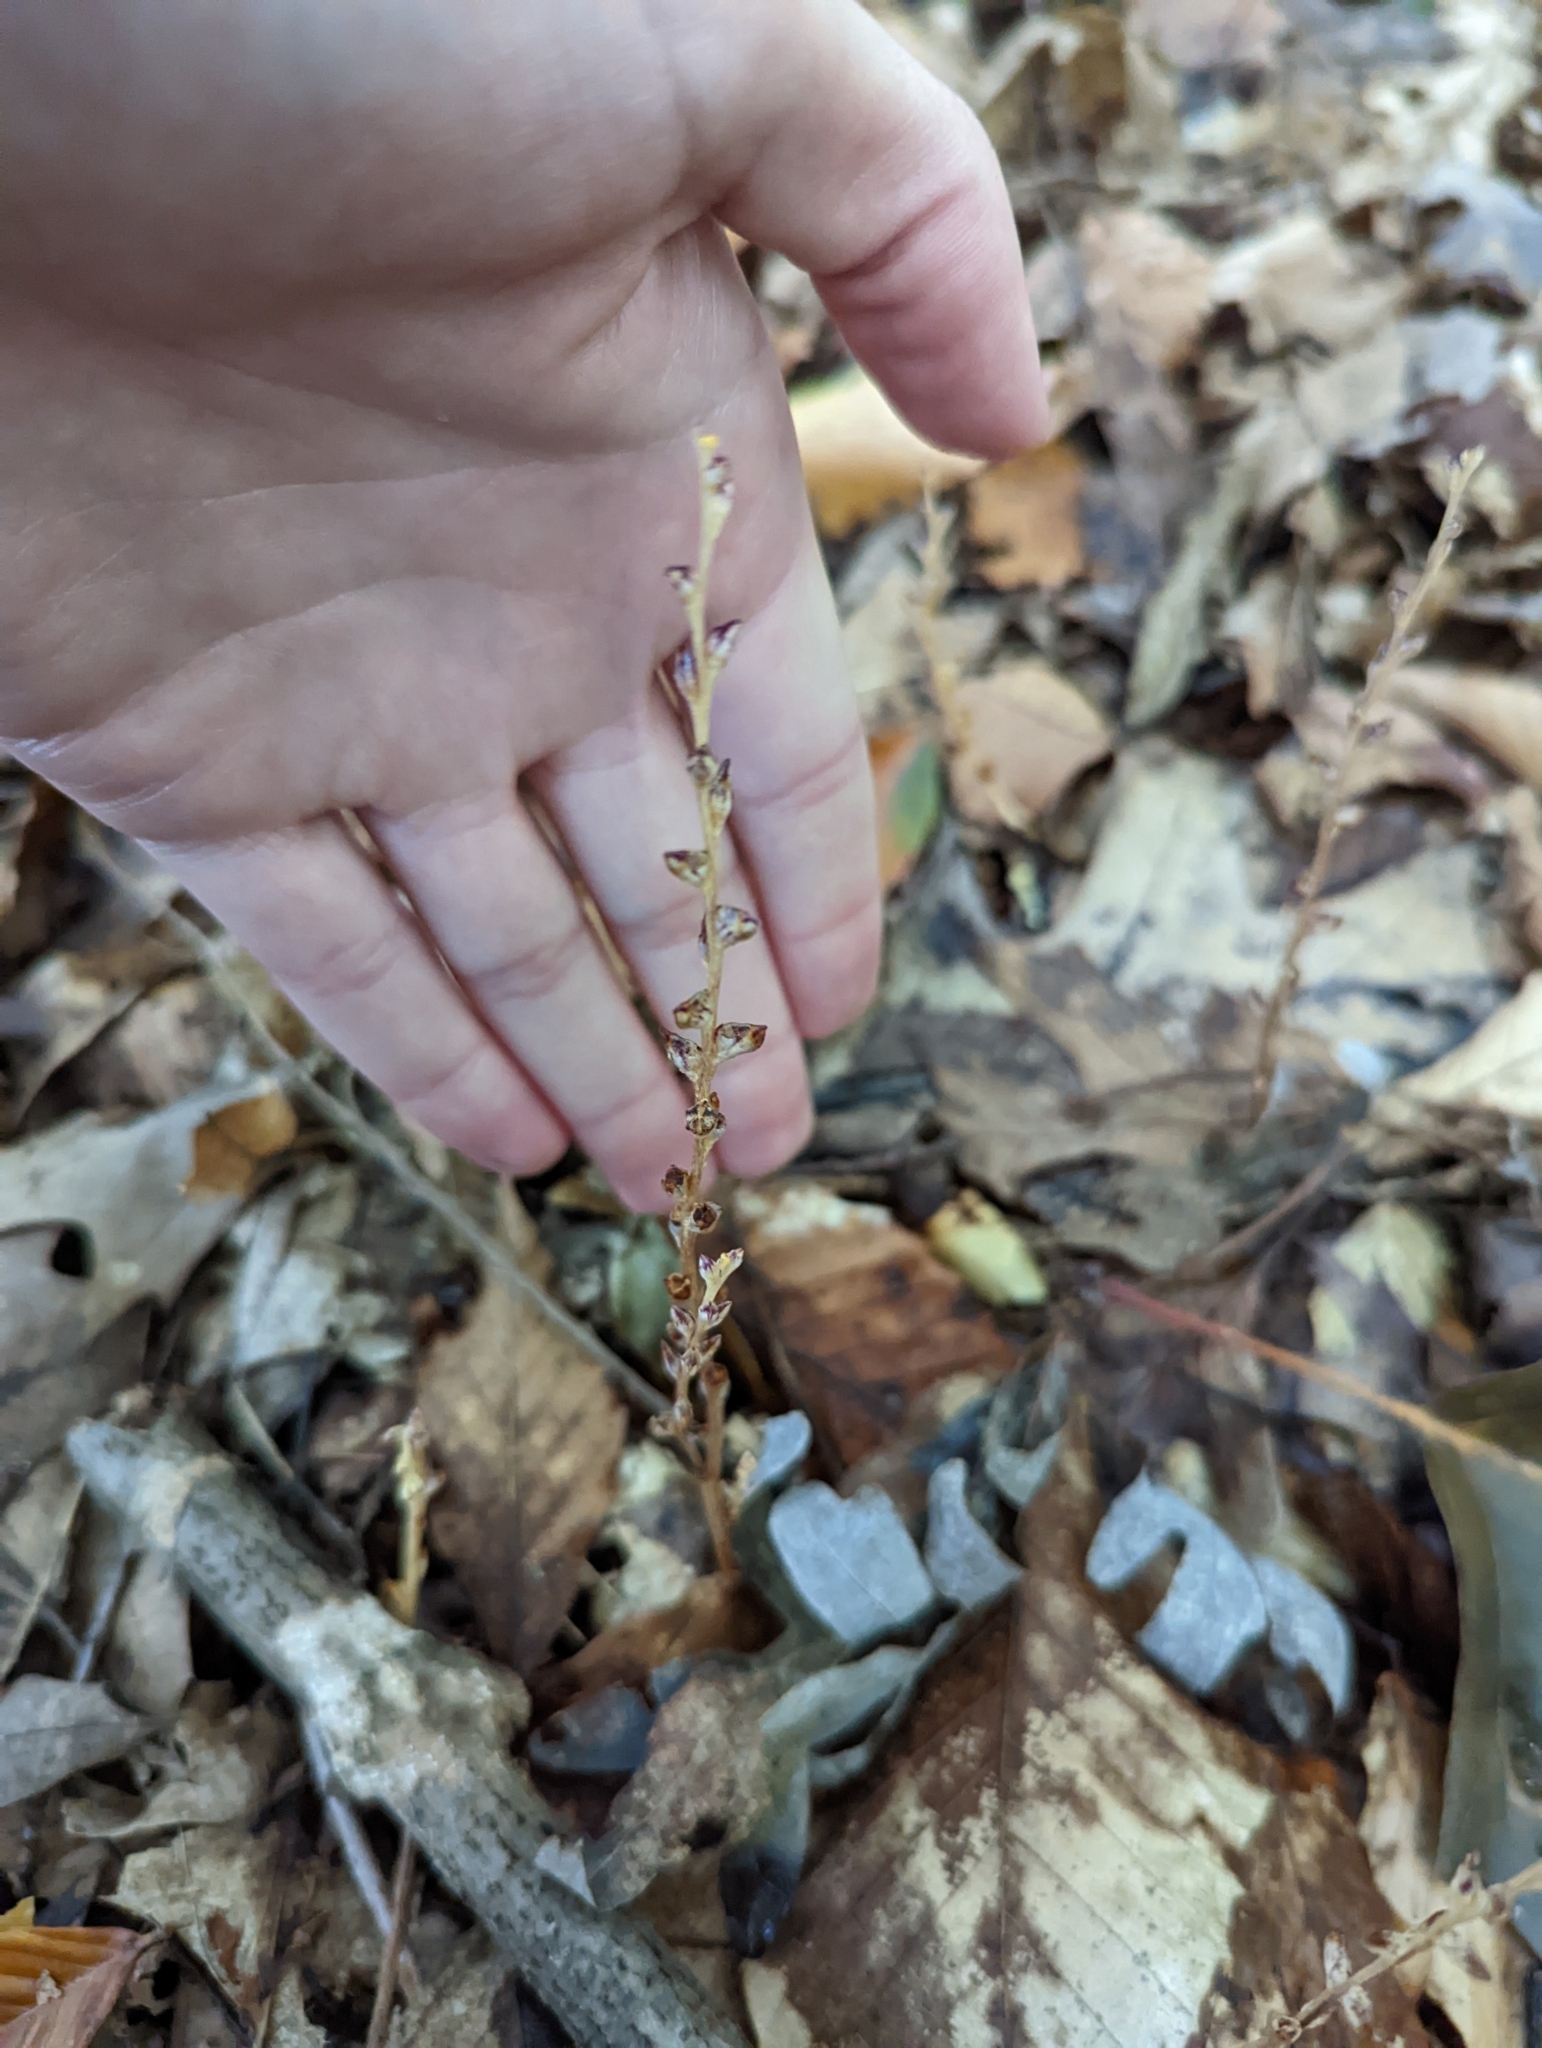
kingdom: Plantae
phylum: Tracheophyta
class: Magnoliopsida
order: Lamiales
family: Orobanchaceae
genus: Epifagus
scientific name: Epifagus virginiana
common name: Beechdrops
